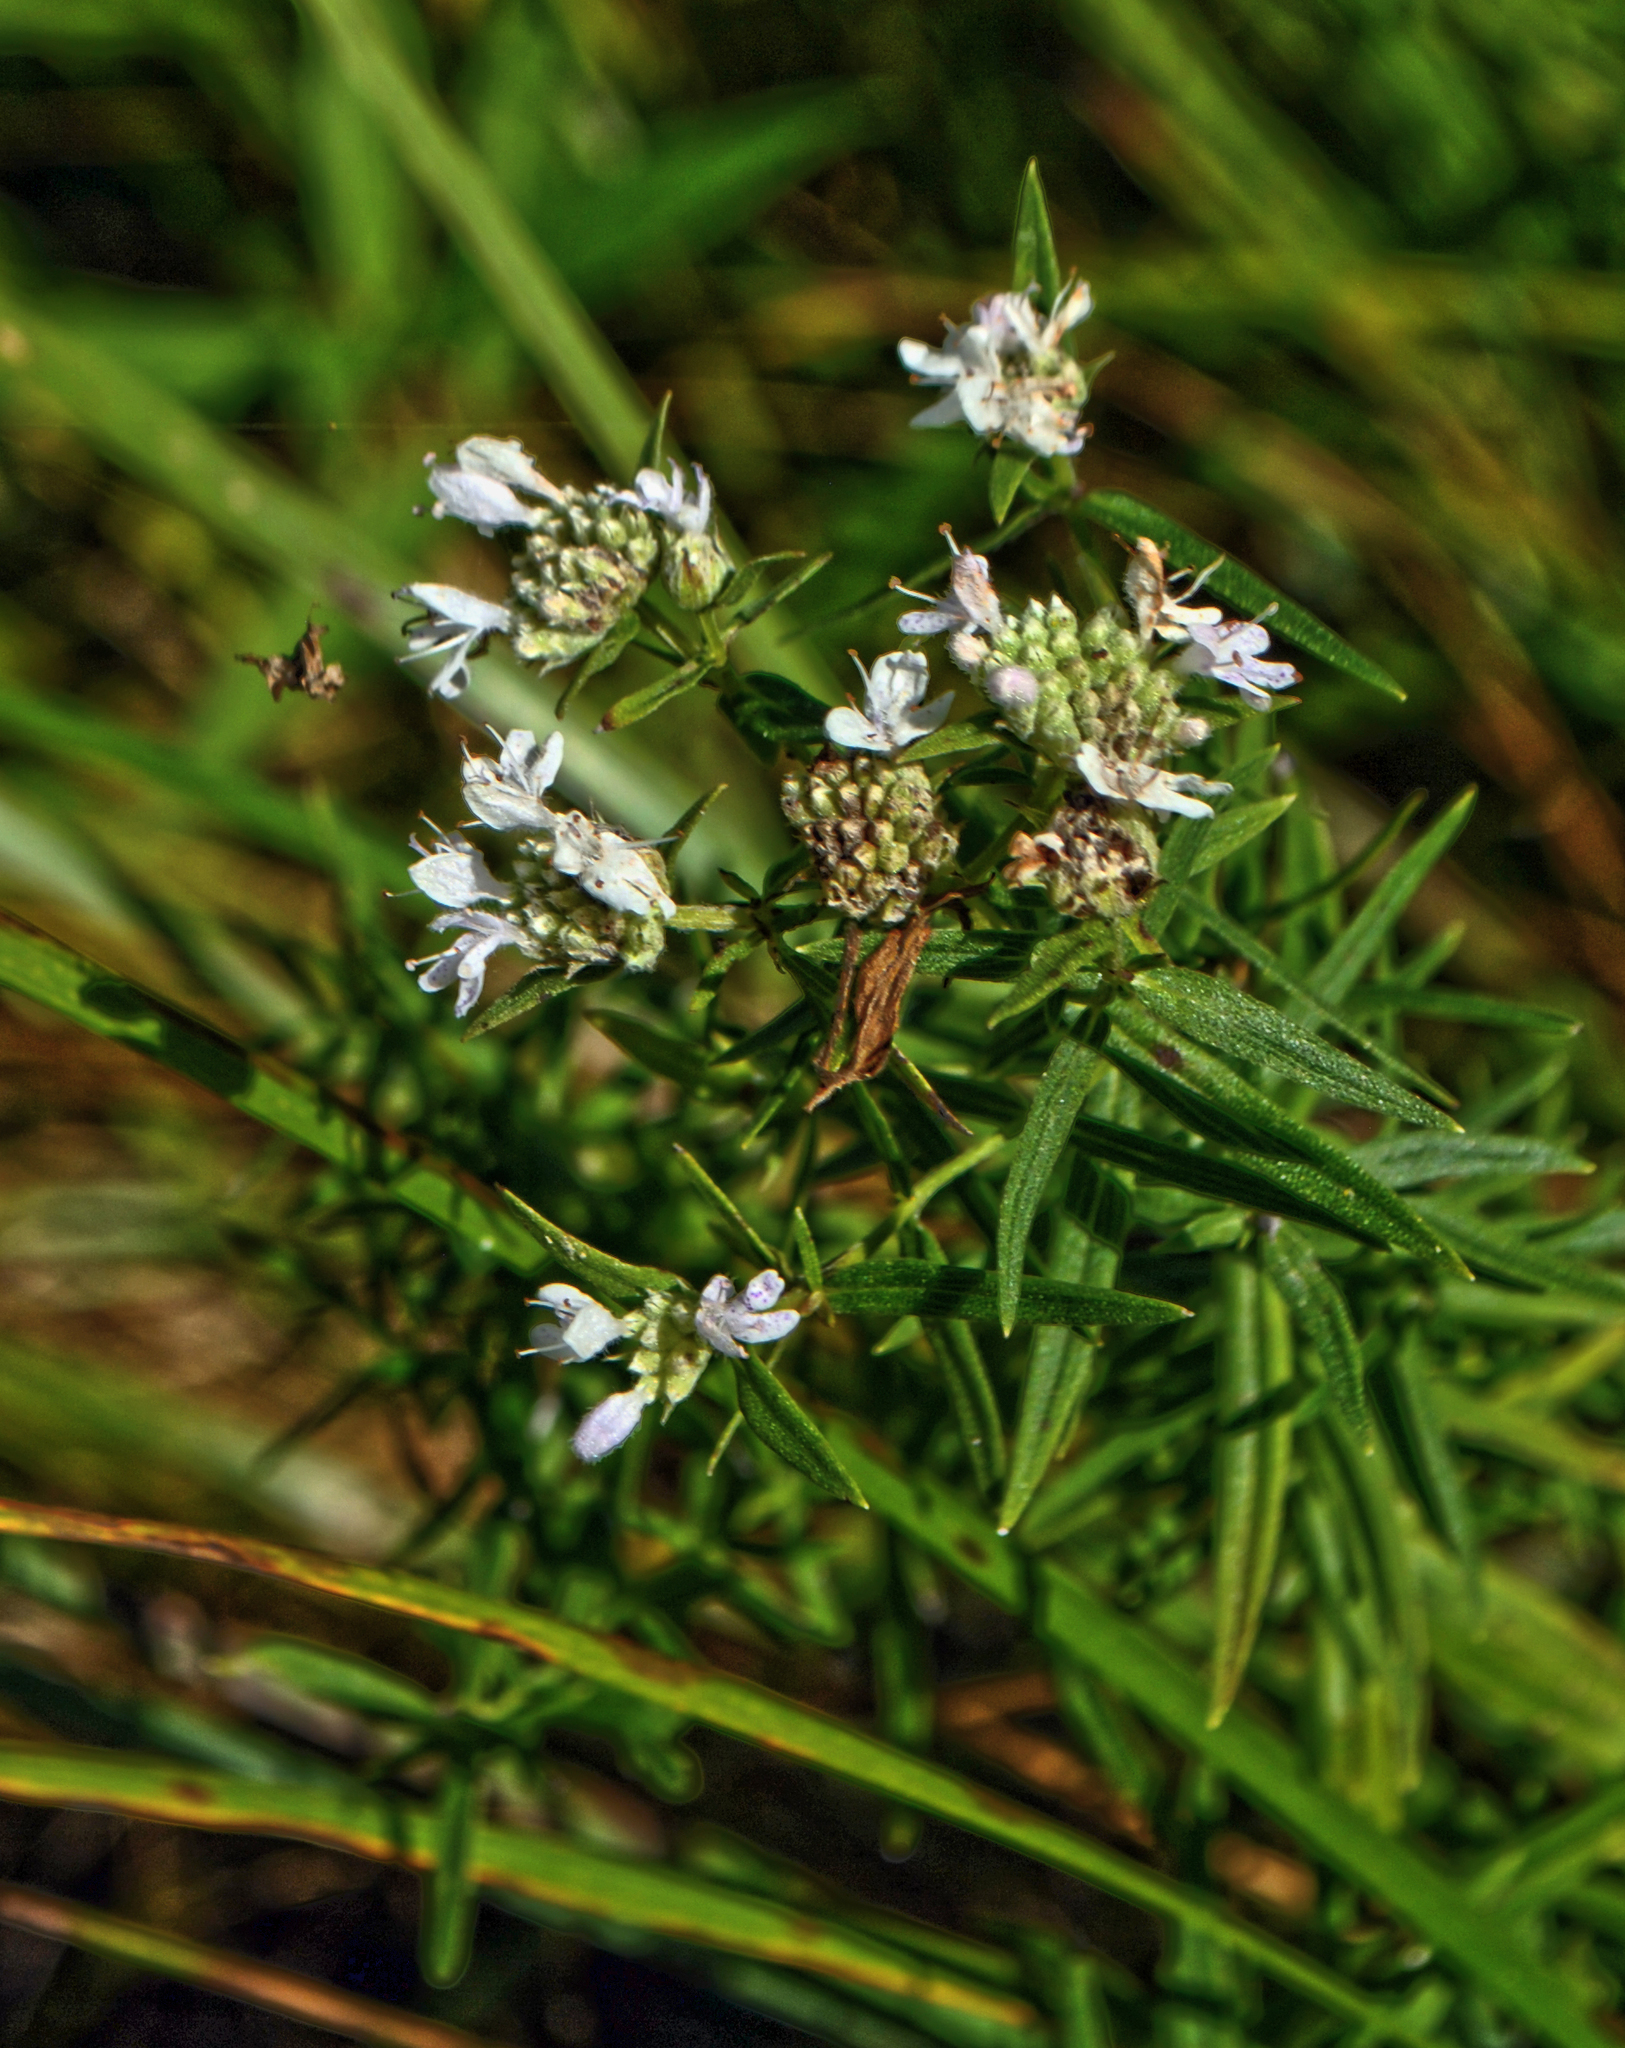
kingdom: Plantae
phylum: Tracheophyta
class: Magnoliopsida
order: Lamiales
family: Lamiaceae
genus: Pycnanthemum
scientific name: Pycnanthemum virginianum
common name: Virginia mountain-mint
